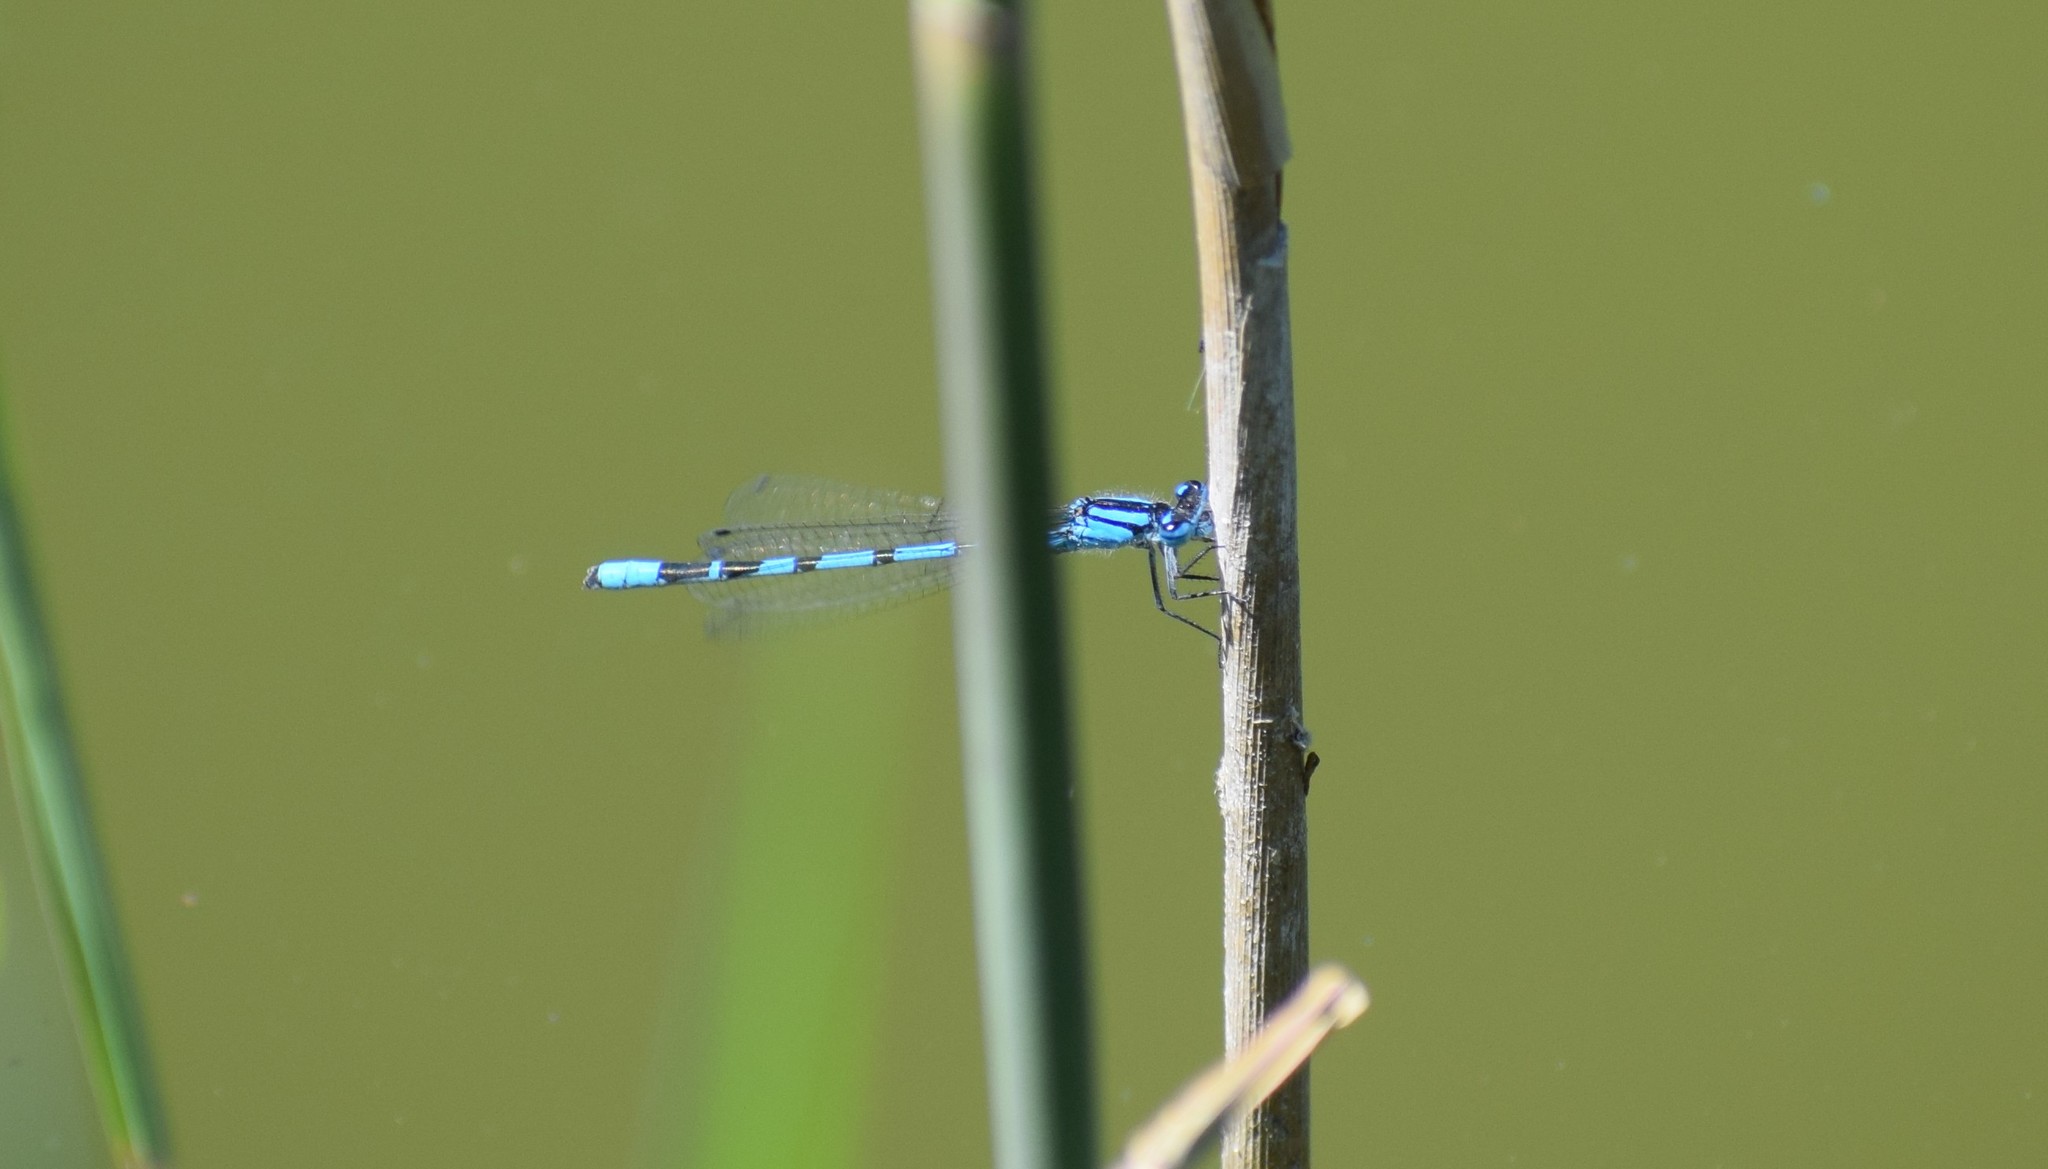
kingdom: Animalia
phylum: Arthropoda
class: Insecta
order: Odonata
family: Coenagrionidae
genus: Enallagma
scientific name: Enallagma cyathigerum
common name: Common blue damselfly
